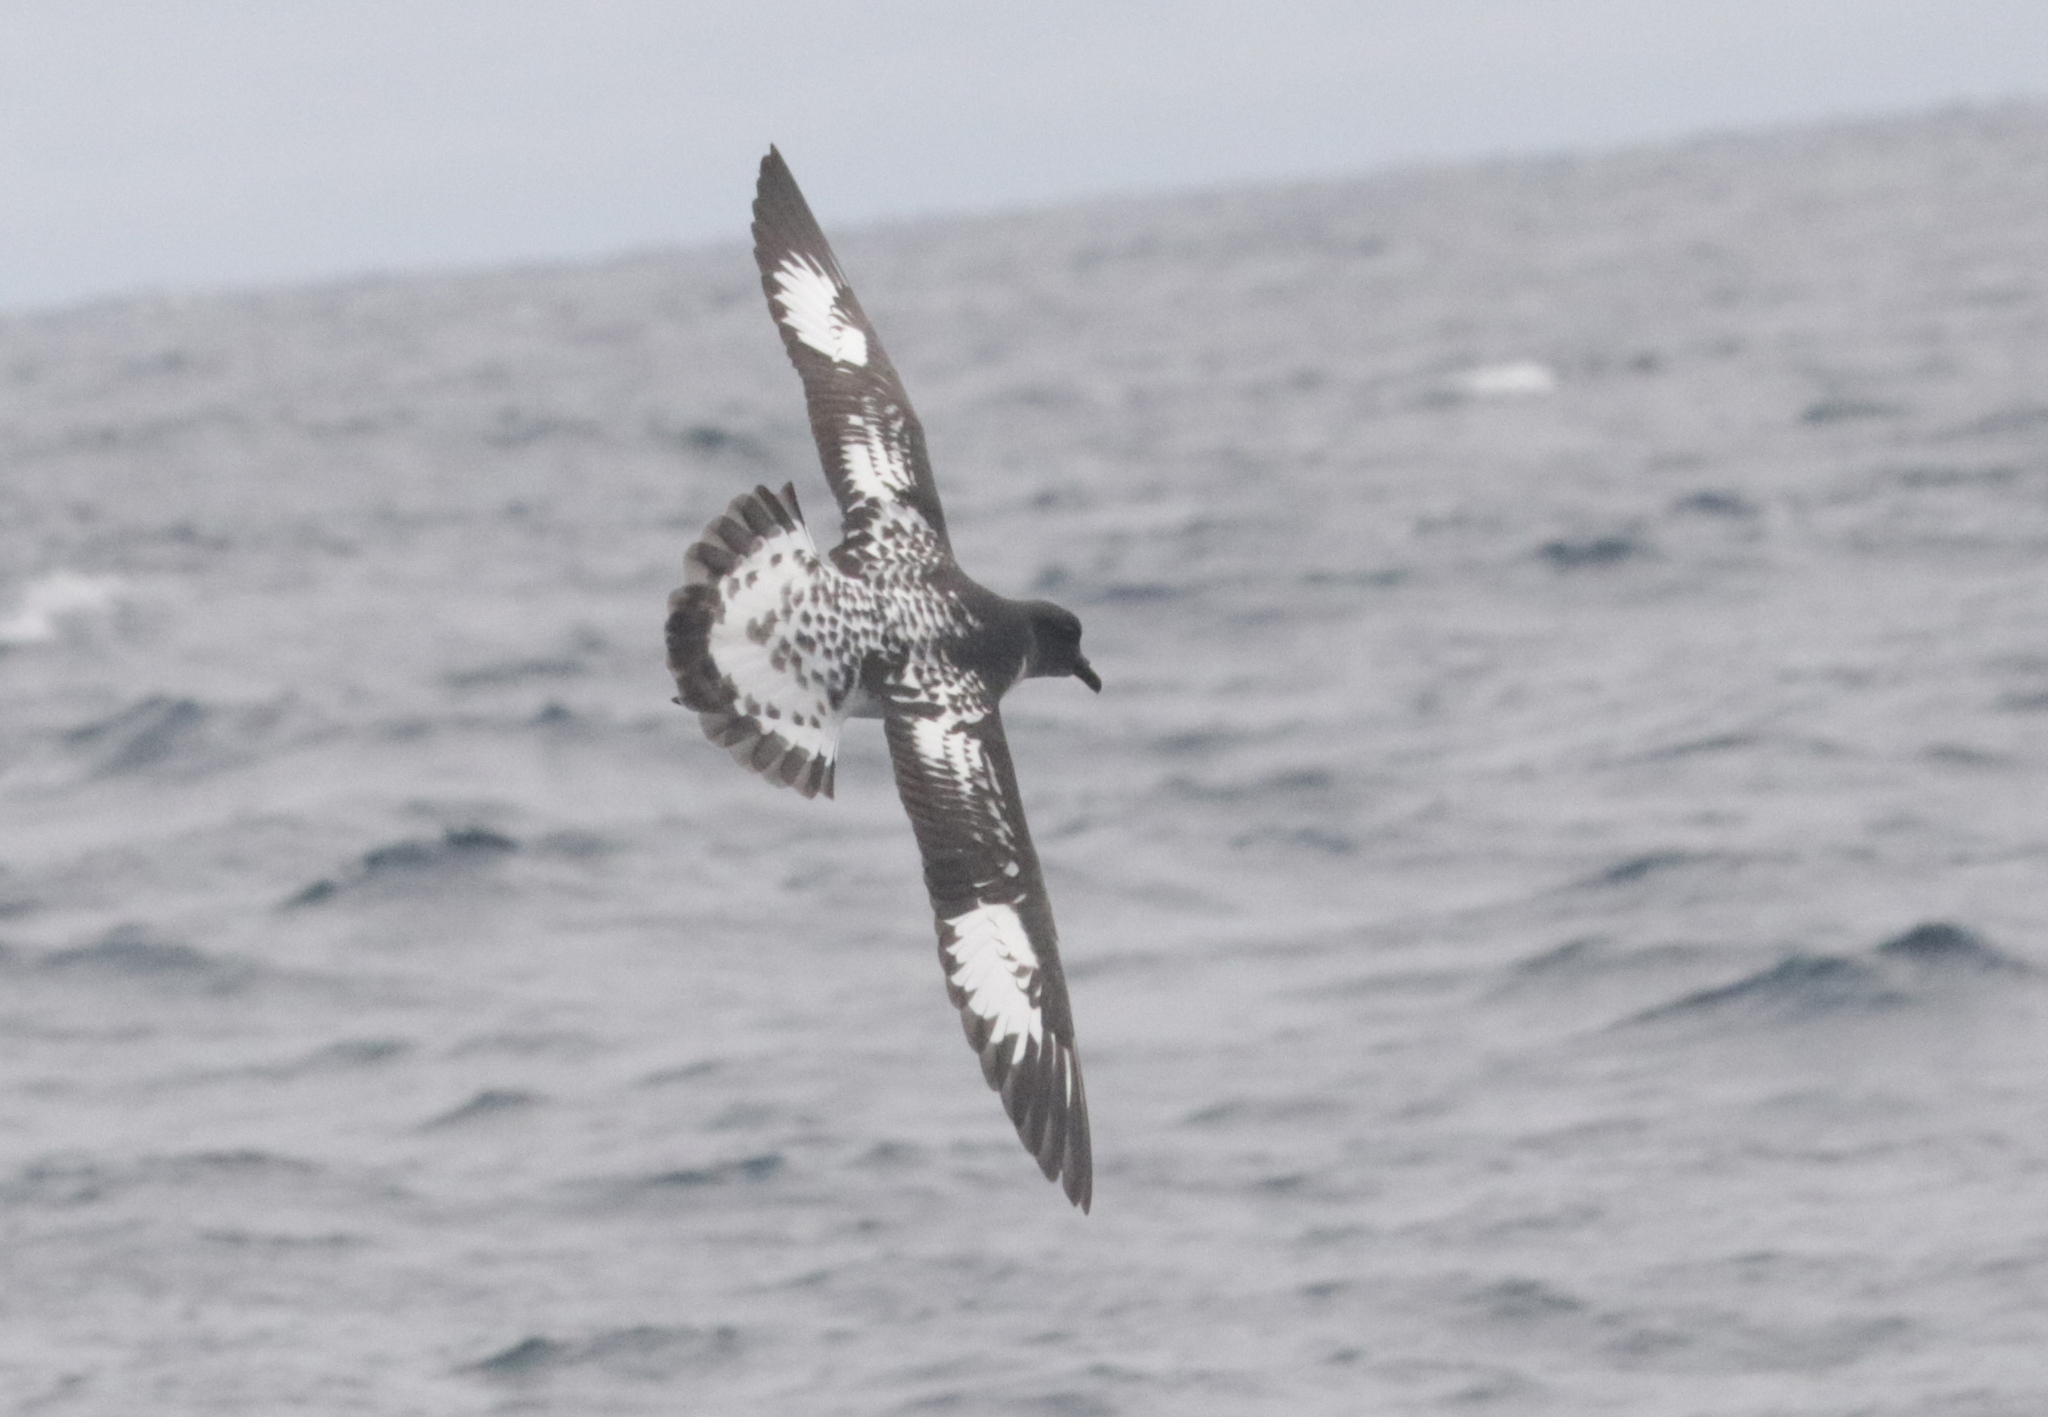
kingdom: Animalia
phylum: Chordata
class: Aves
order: Procellariiformes
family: Procellariidae
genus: Daption
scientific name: Daption capense
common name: Cape petrel
